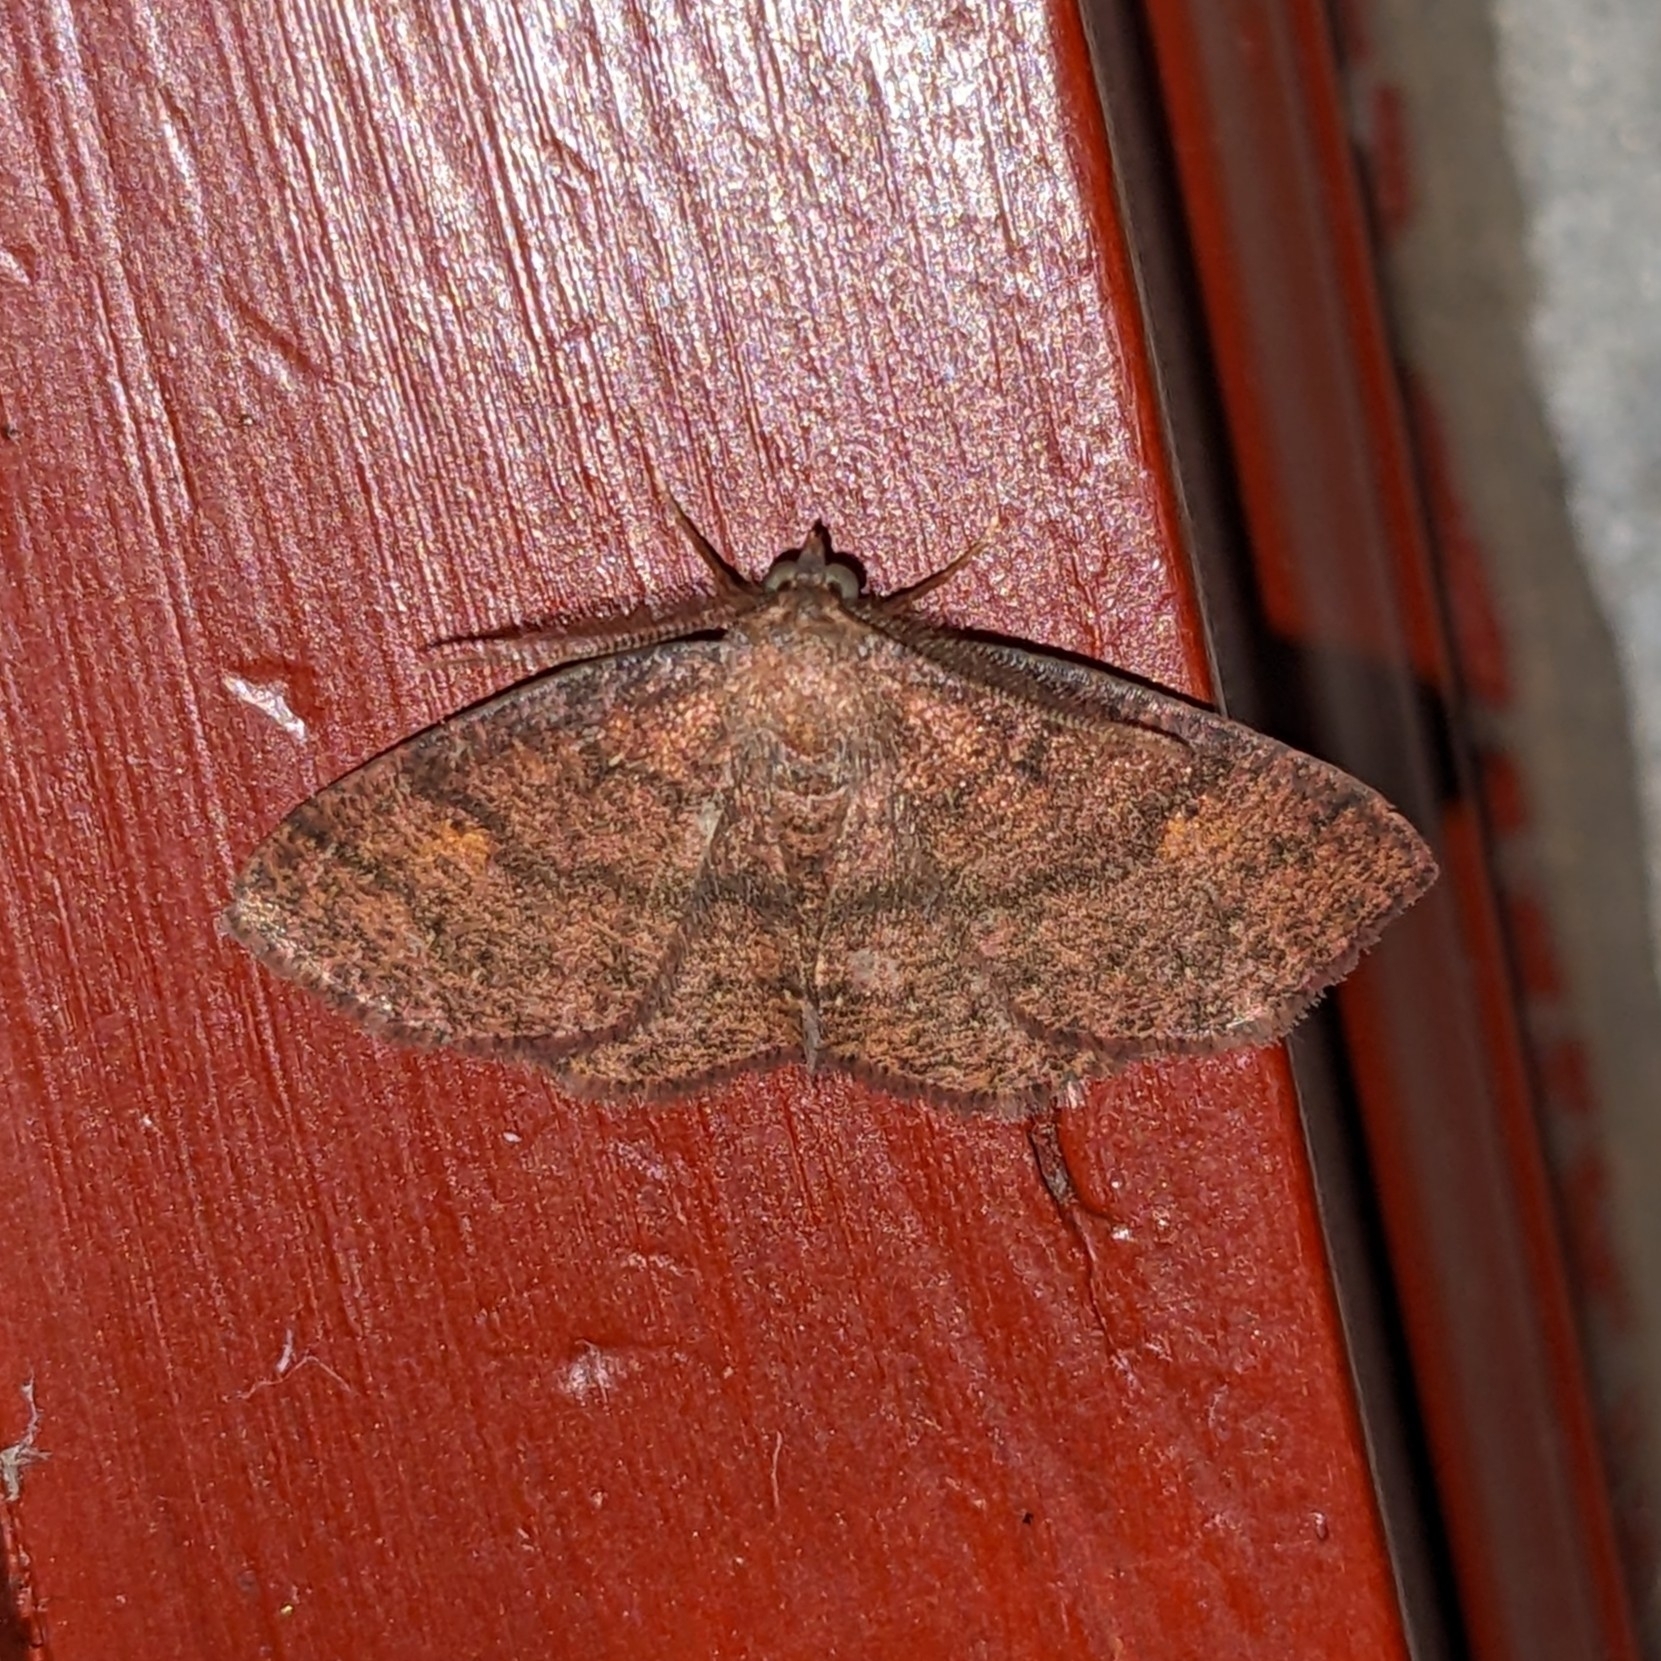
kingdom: Animalia
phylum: Arthropoda
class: Insecta
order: Lepidoptera
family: Geometridae
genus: Ilexia
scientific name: Ilexia intractata
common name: Black-dotted ruddy moth
